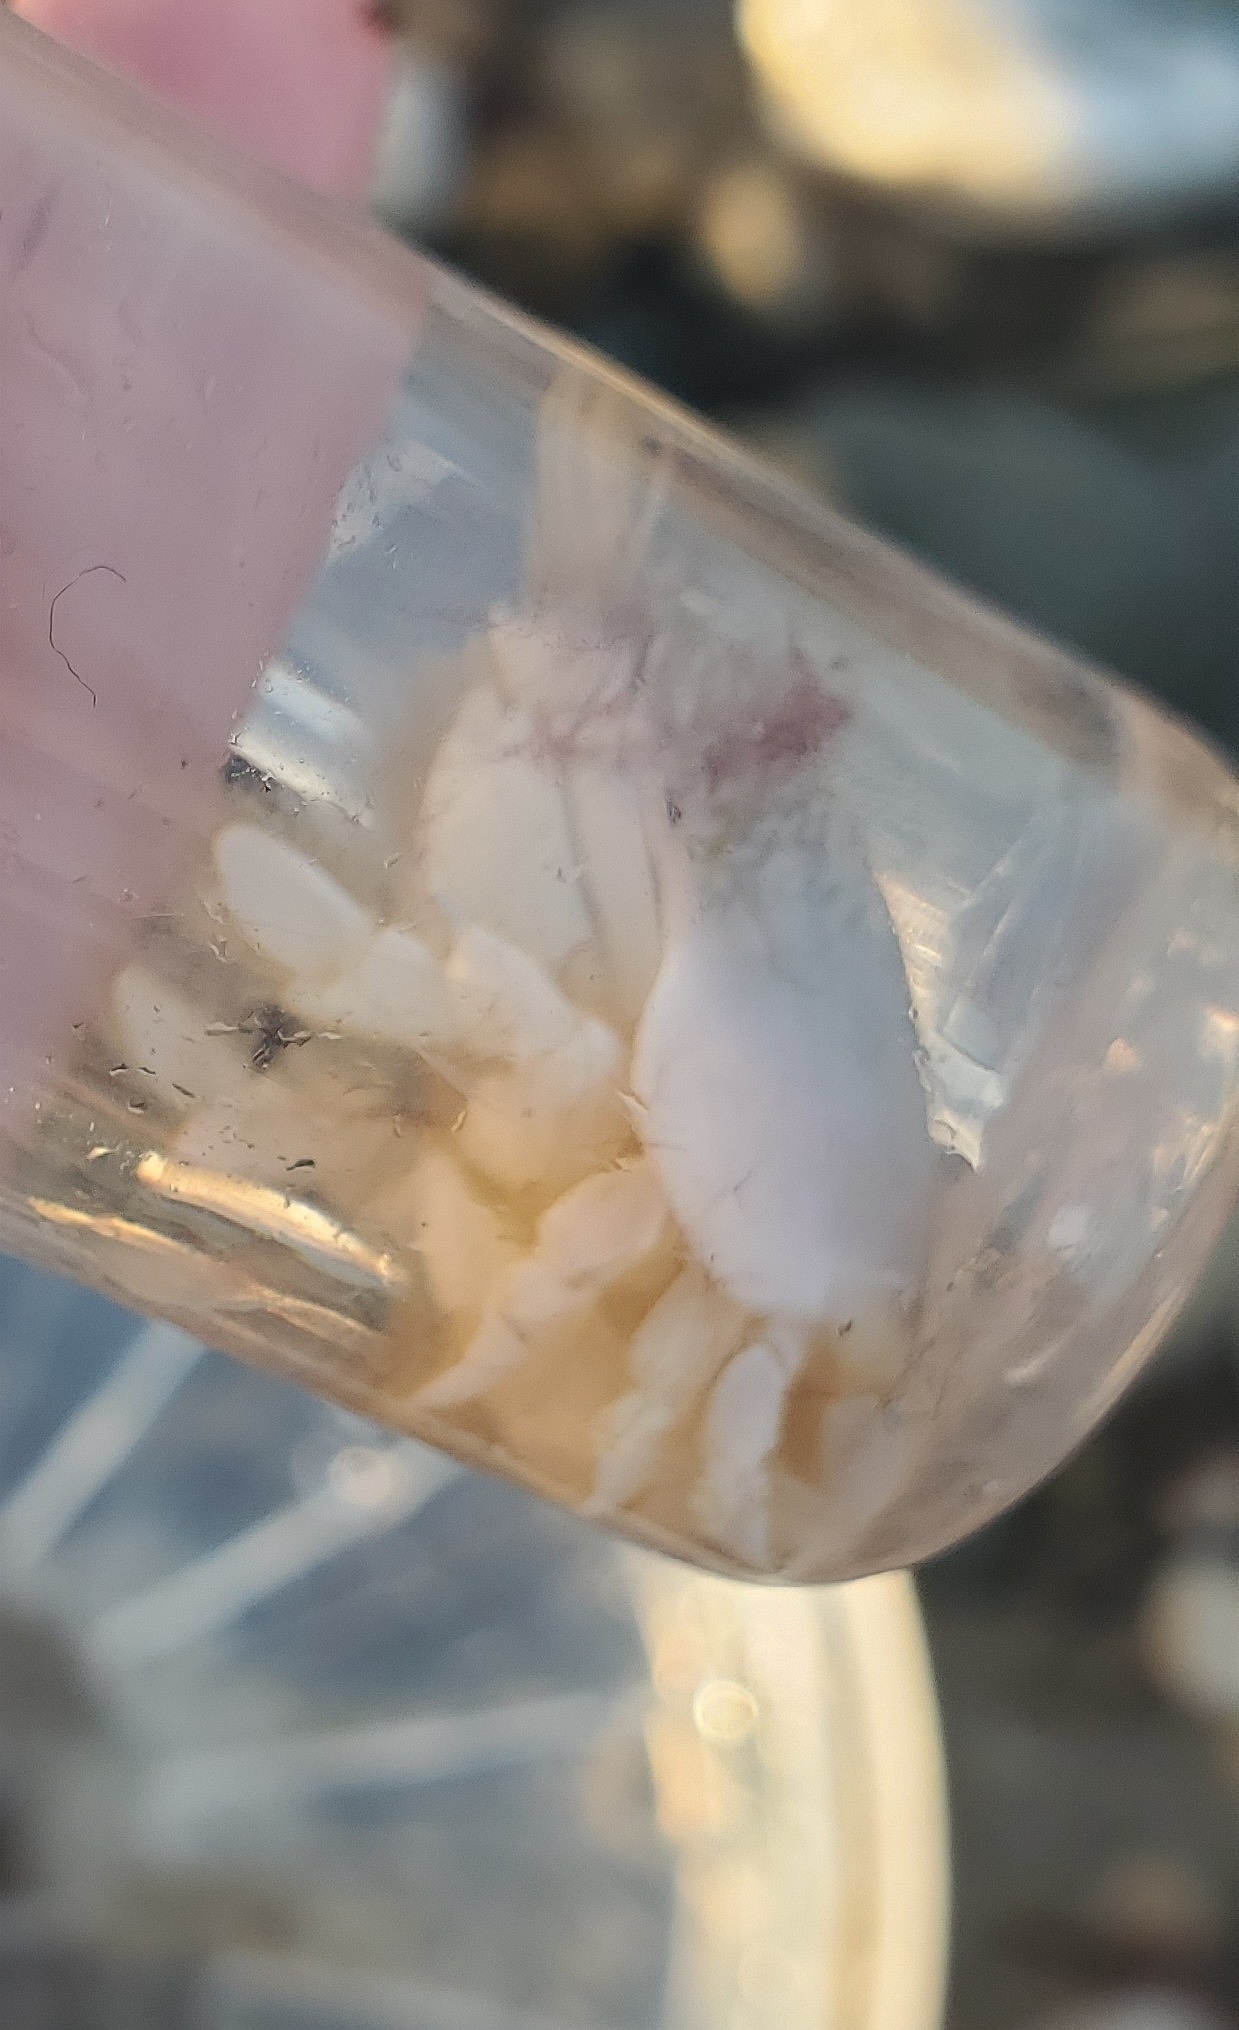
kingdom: Animalia
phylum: Arthropoda
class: Malacostraca
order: Decapoda
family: Hippidae
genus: Emerita
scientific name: Emerita talpoida
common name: Atlantic sand crab
